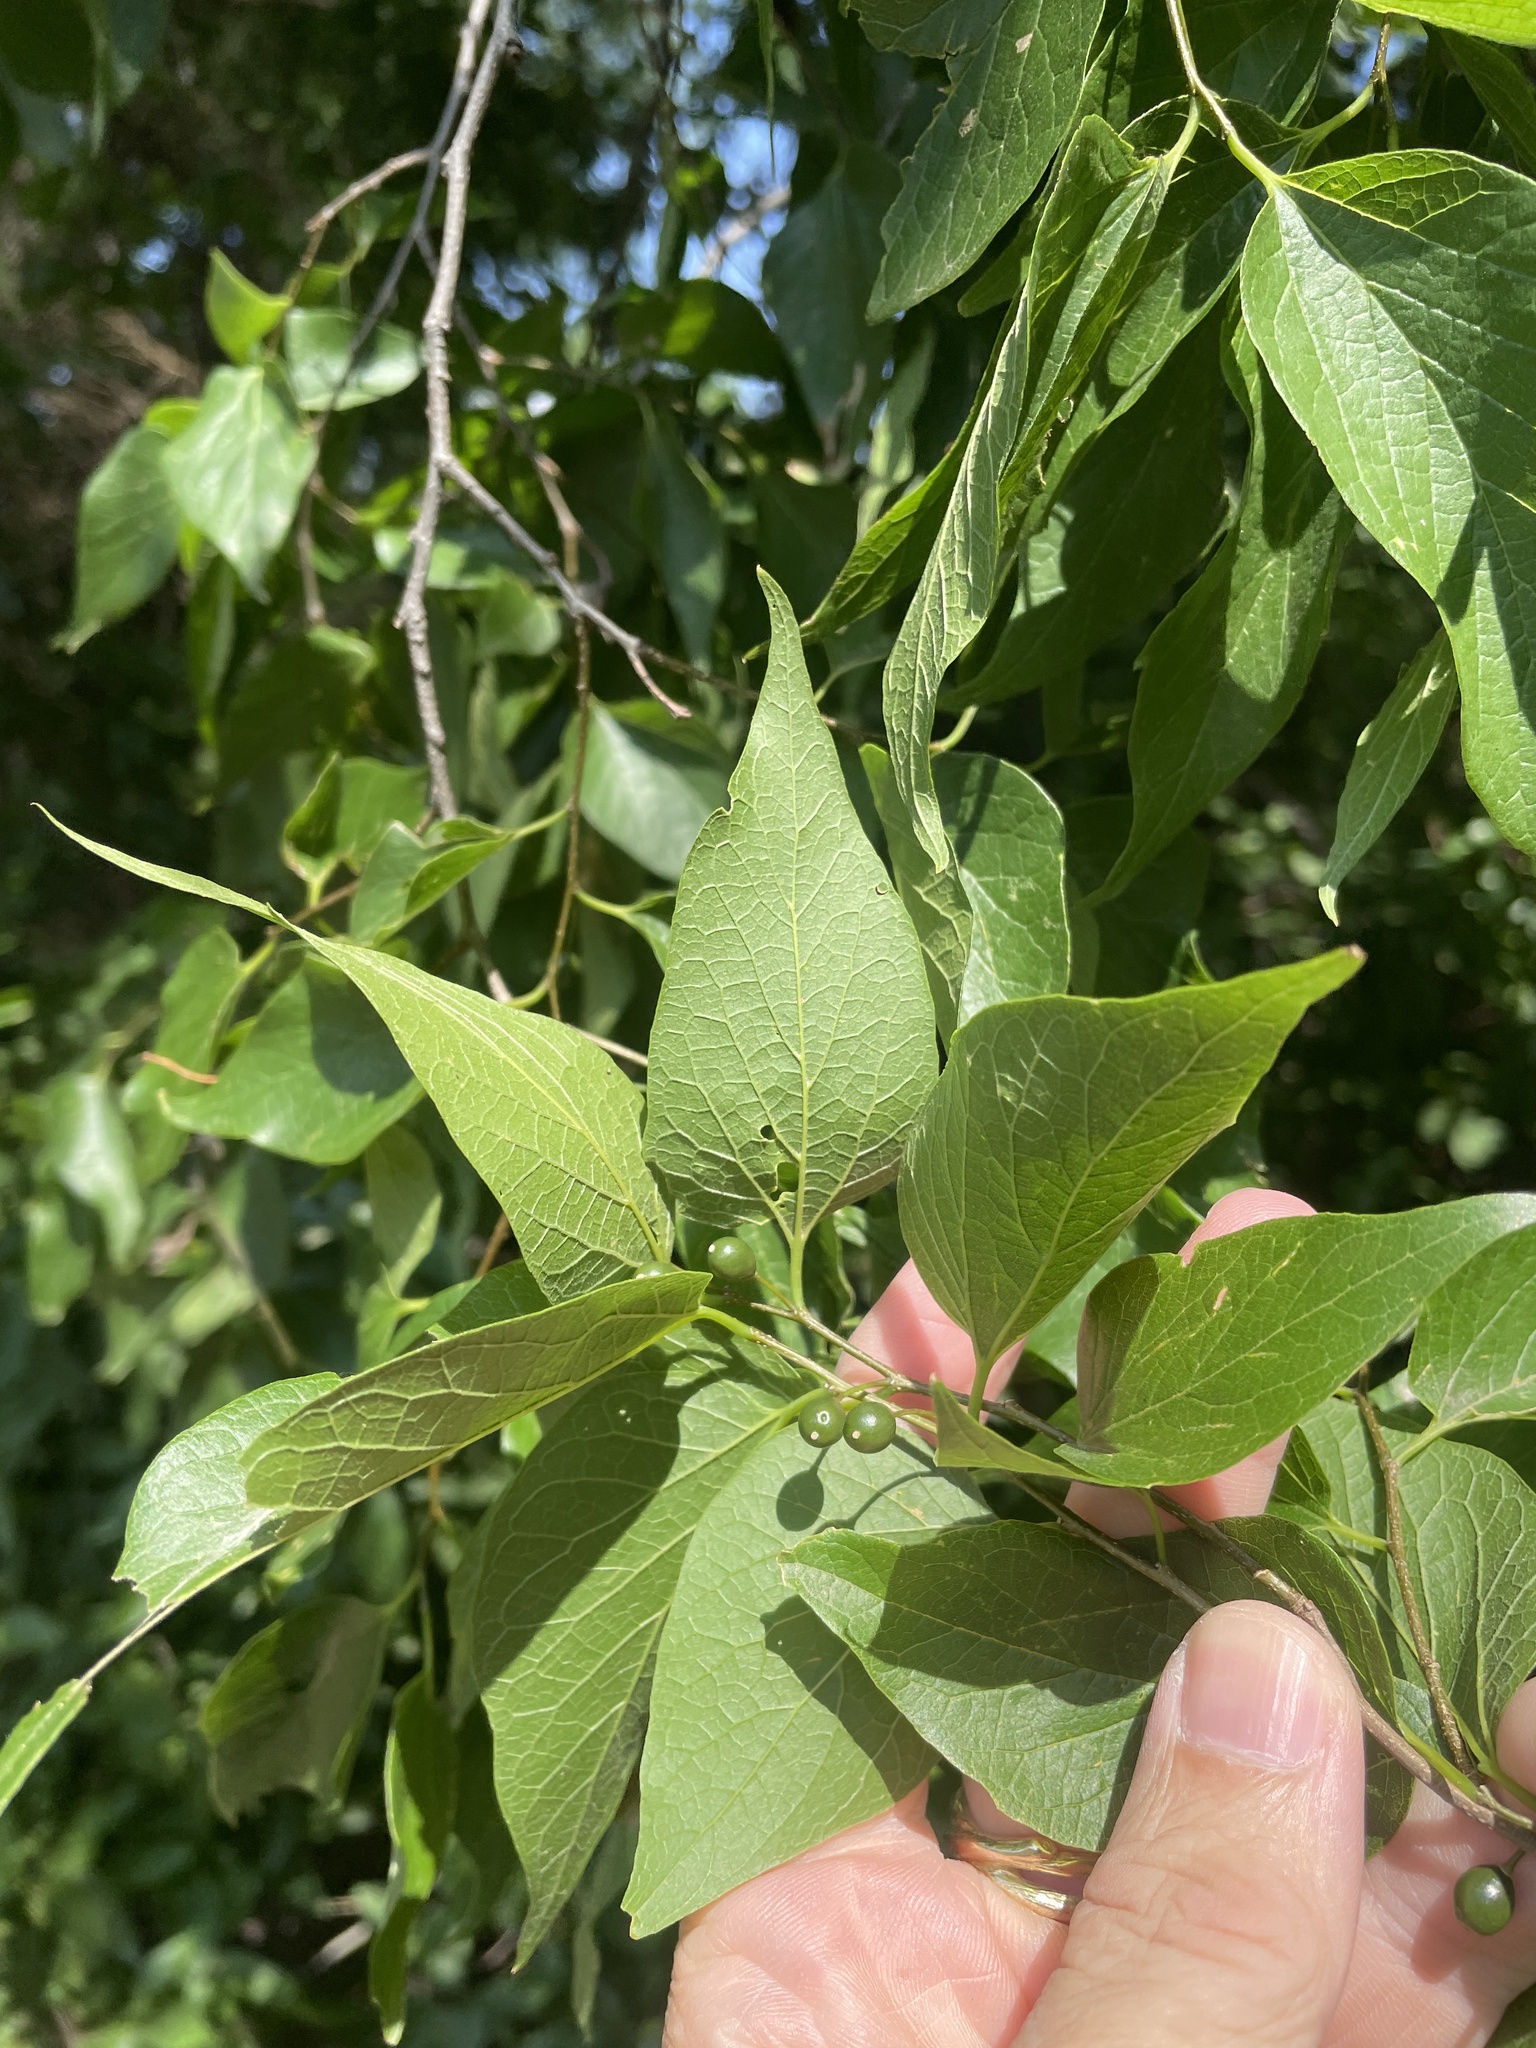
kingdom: Plantae
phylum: Tracheophyta
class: Magnoliopsida
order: Rosales
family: Cannabaceae
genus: Celtis
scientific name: Celtis laevigata
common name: Sugarberry
